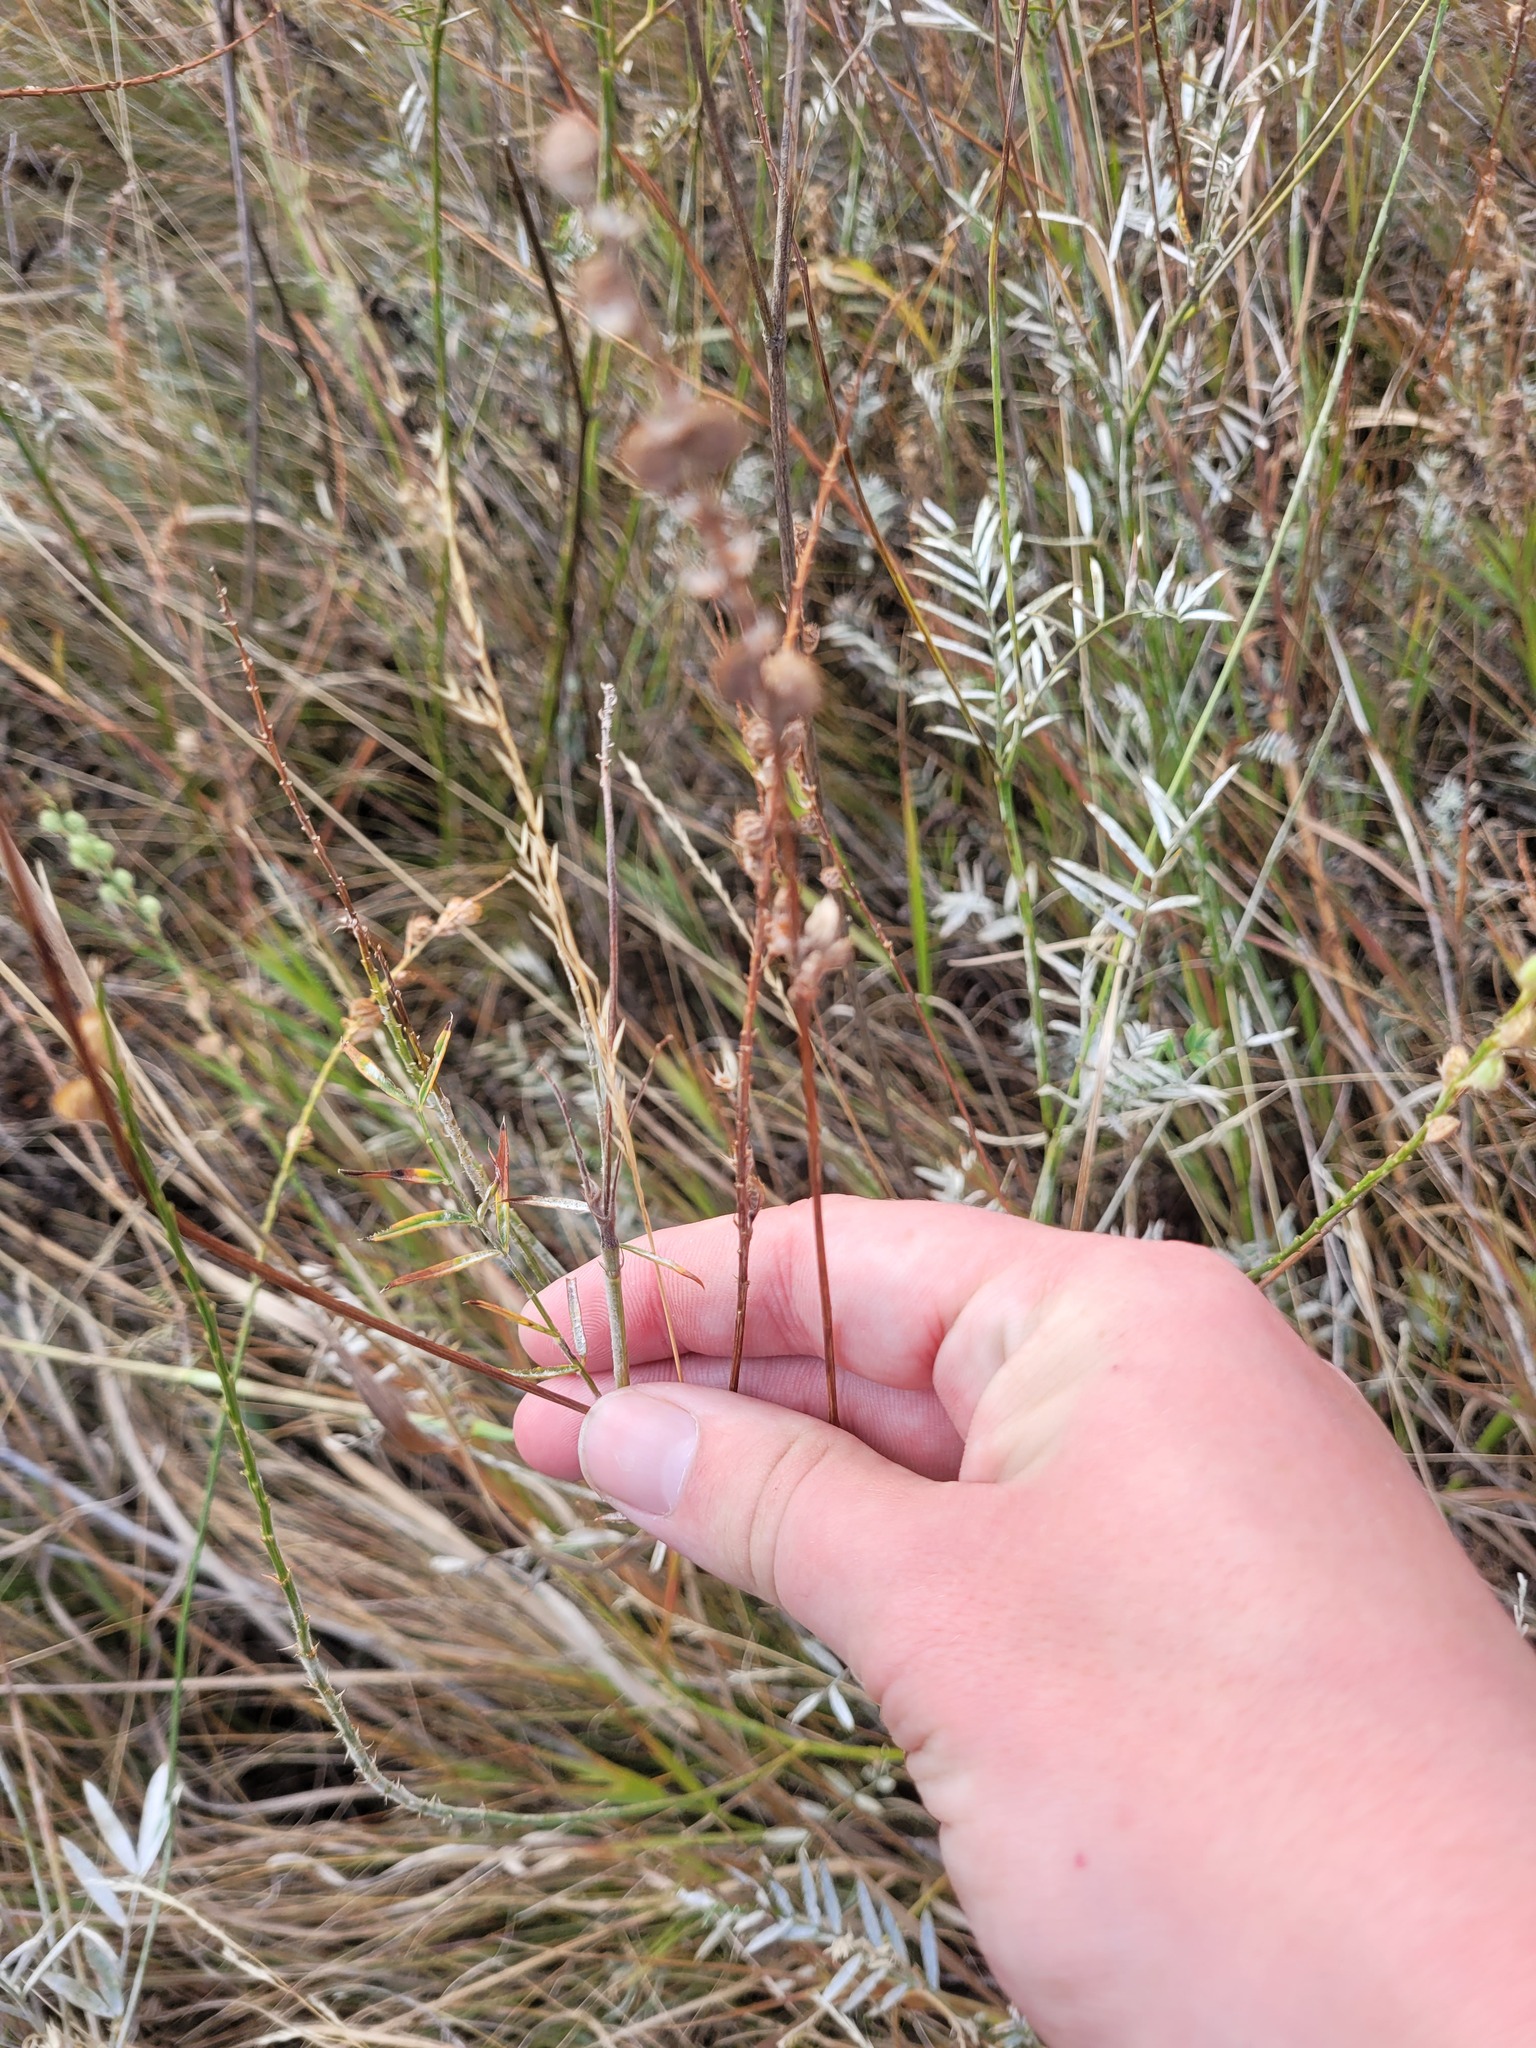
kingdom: Plantae
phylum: Tracheophyta
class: Magnoliopsida
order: Fabales
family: Fabaceae
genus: Onobrychis
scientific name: Onobrychis viciifolia
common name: Sainfoin
